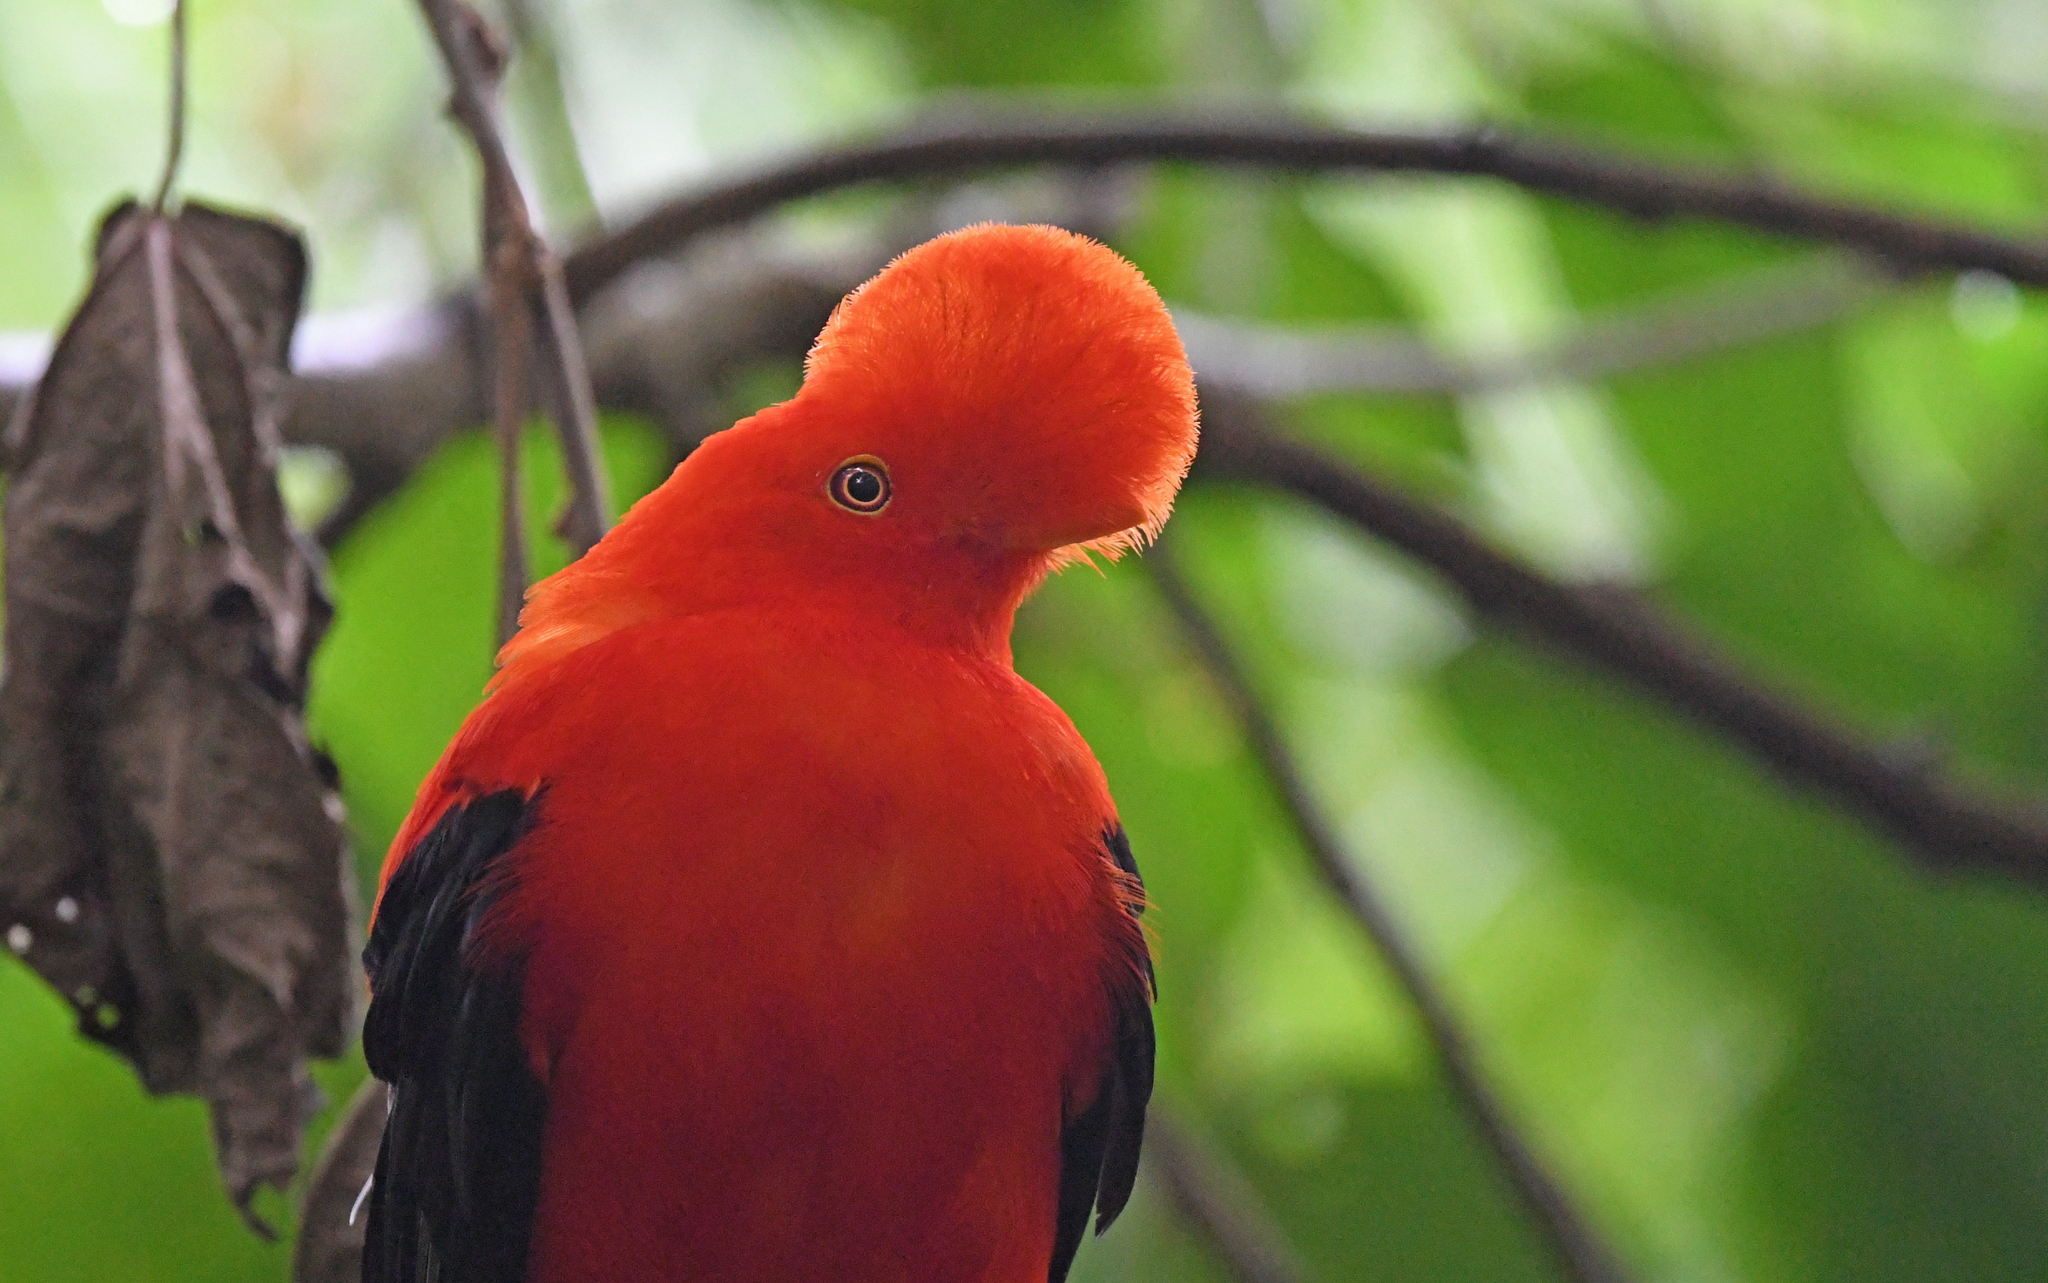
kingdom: Animalia
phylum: Chordata
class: Aves
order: Passeriformes
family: Cotingidae
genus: Rupicola
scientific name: Rupicola peruvianus
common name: Andean cock-of-the-rock
